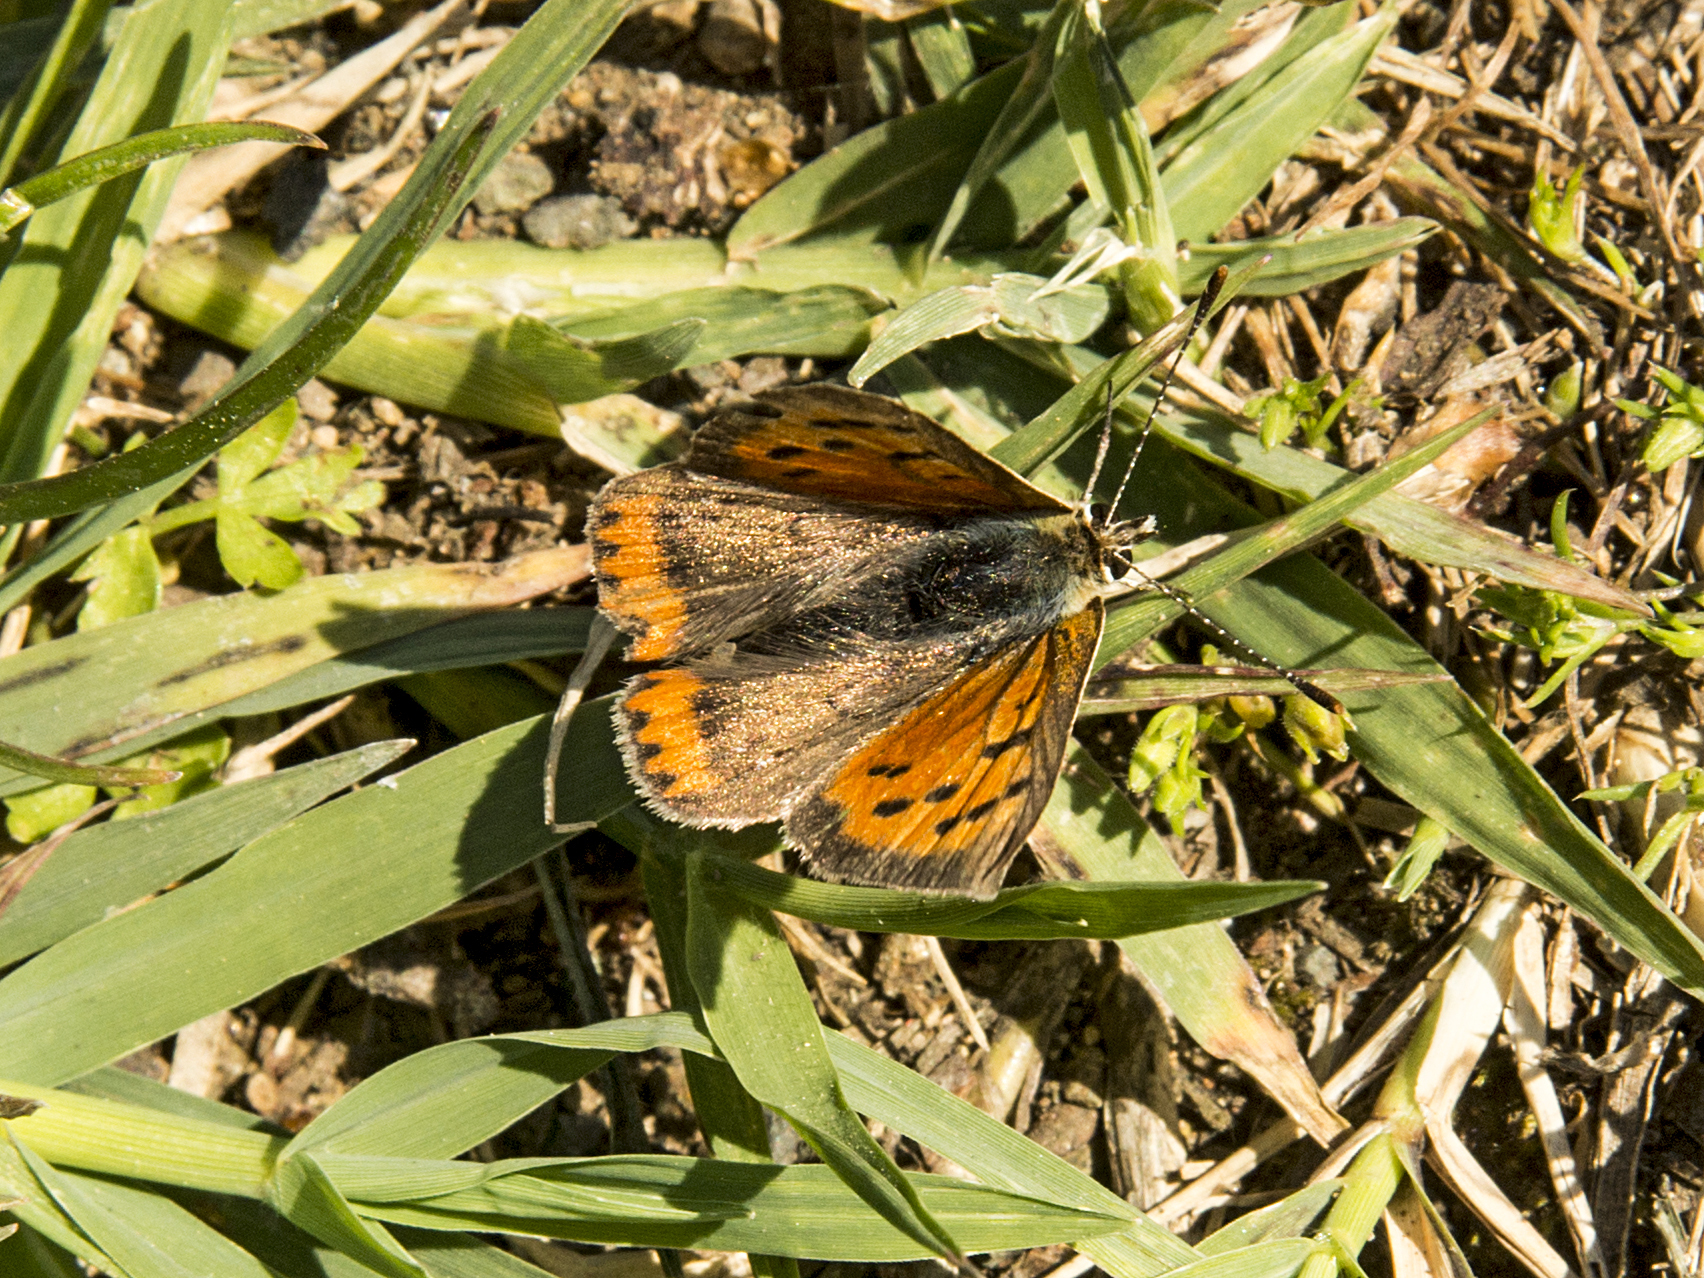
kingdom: Animalia
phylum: Arthropoda
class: Insecta
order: Lepidoptera
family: Lycaenidae
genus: Lycaena
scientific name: Lycaena phlaeas
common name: Small copper
